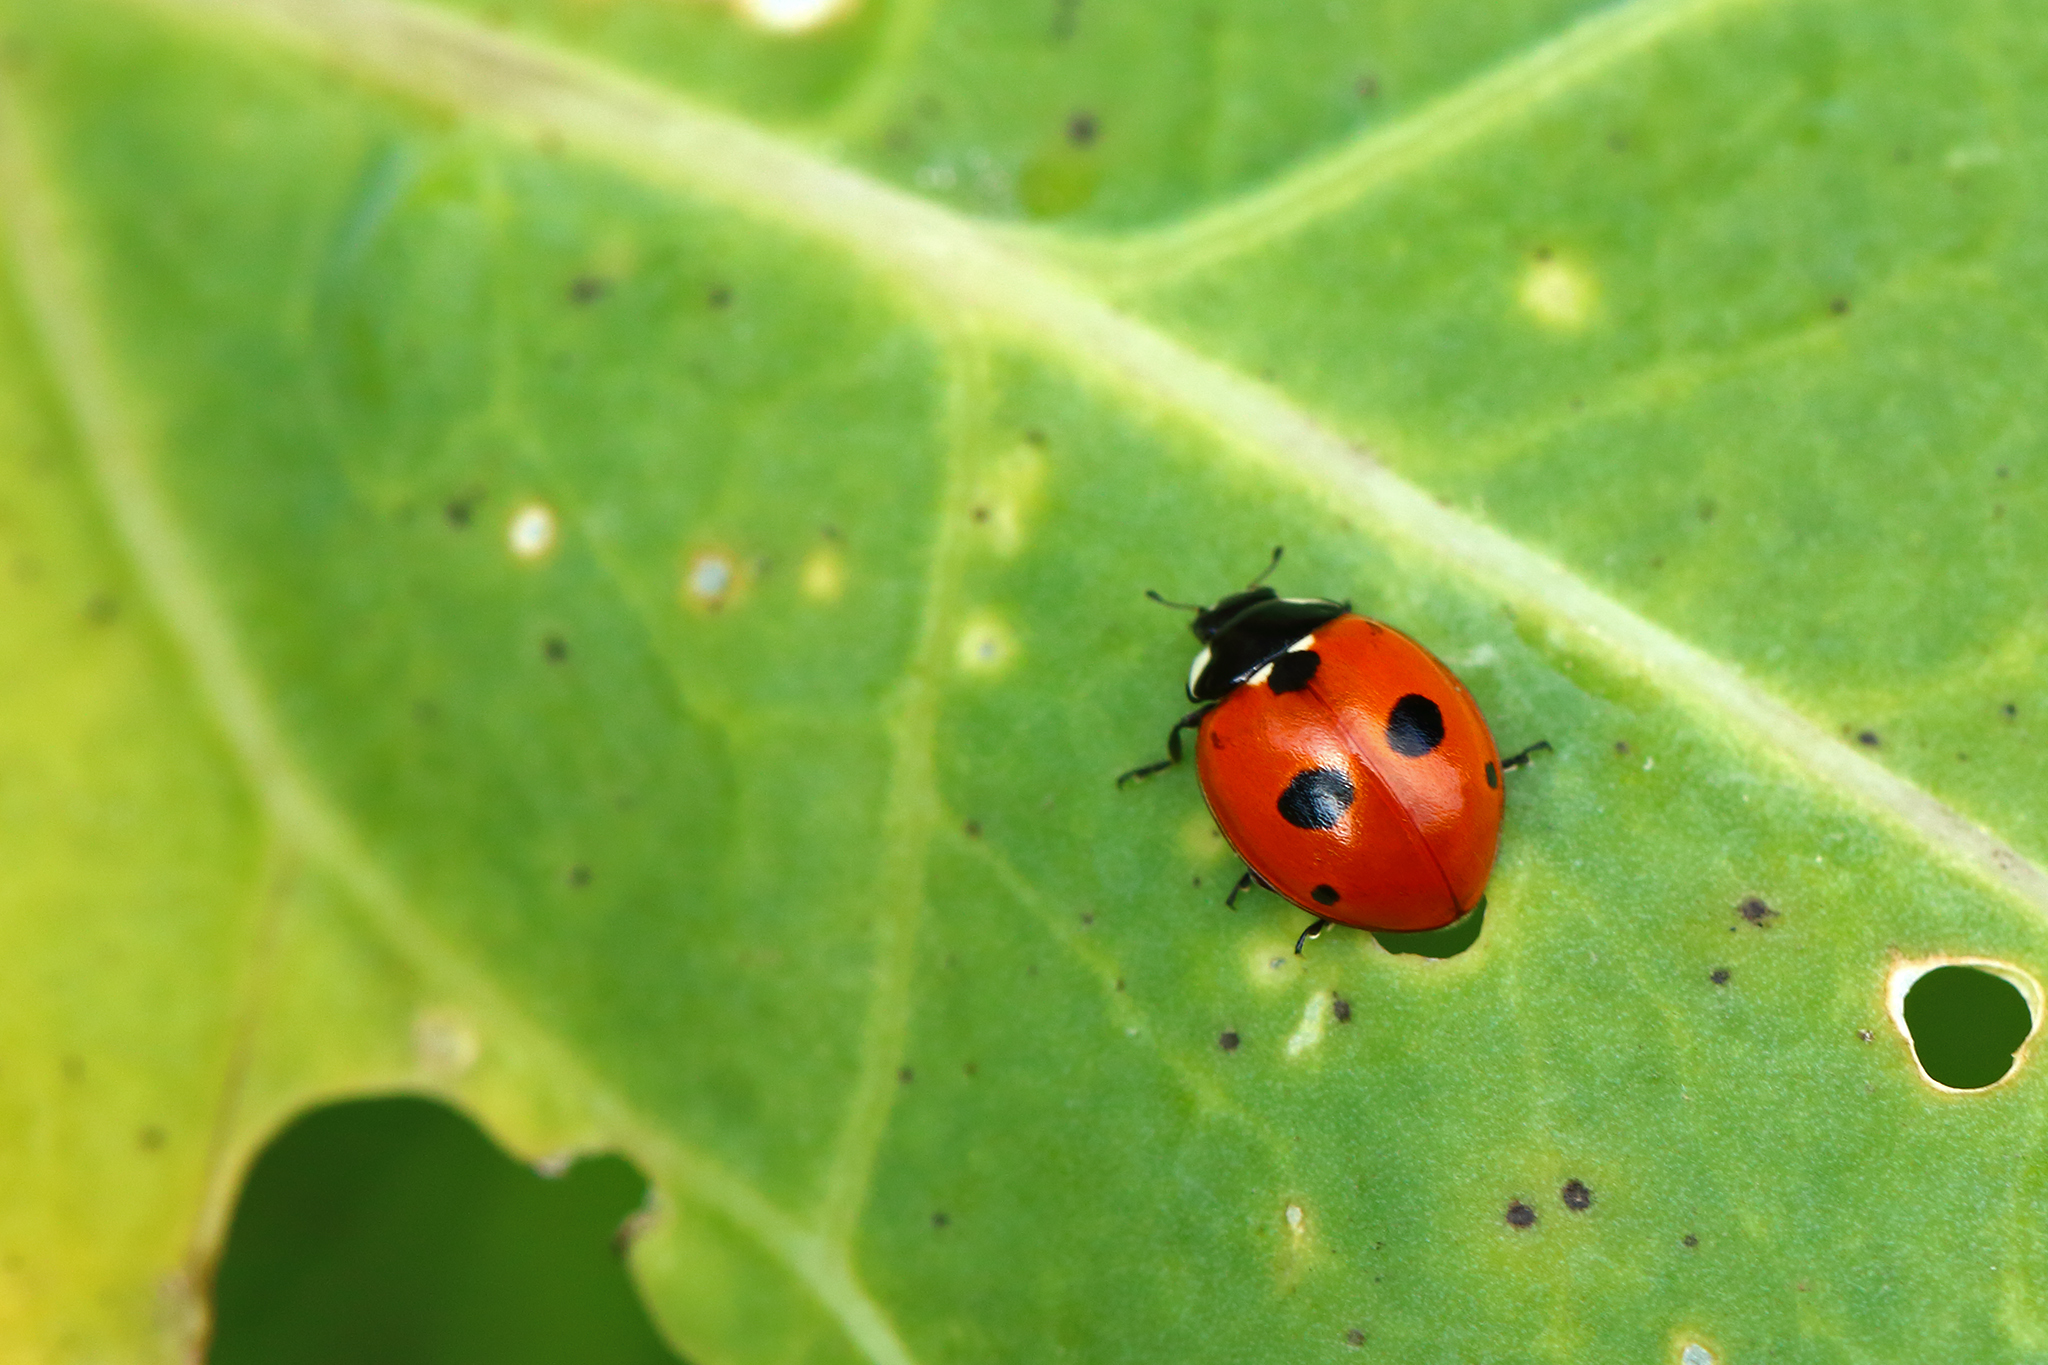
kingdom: Animalia
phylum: Arthropoda
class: Insecta
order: Coleoptera
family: Coccinellidae
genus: Coccinella
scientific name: Coccinella quinquepunctata
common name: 5-spot ladybird
